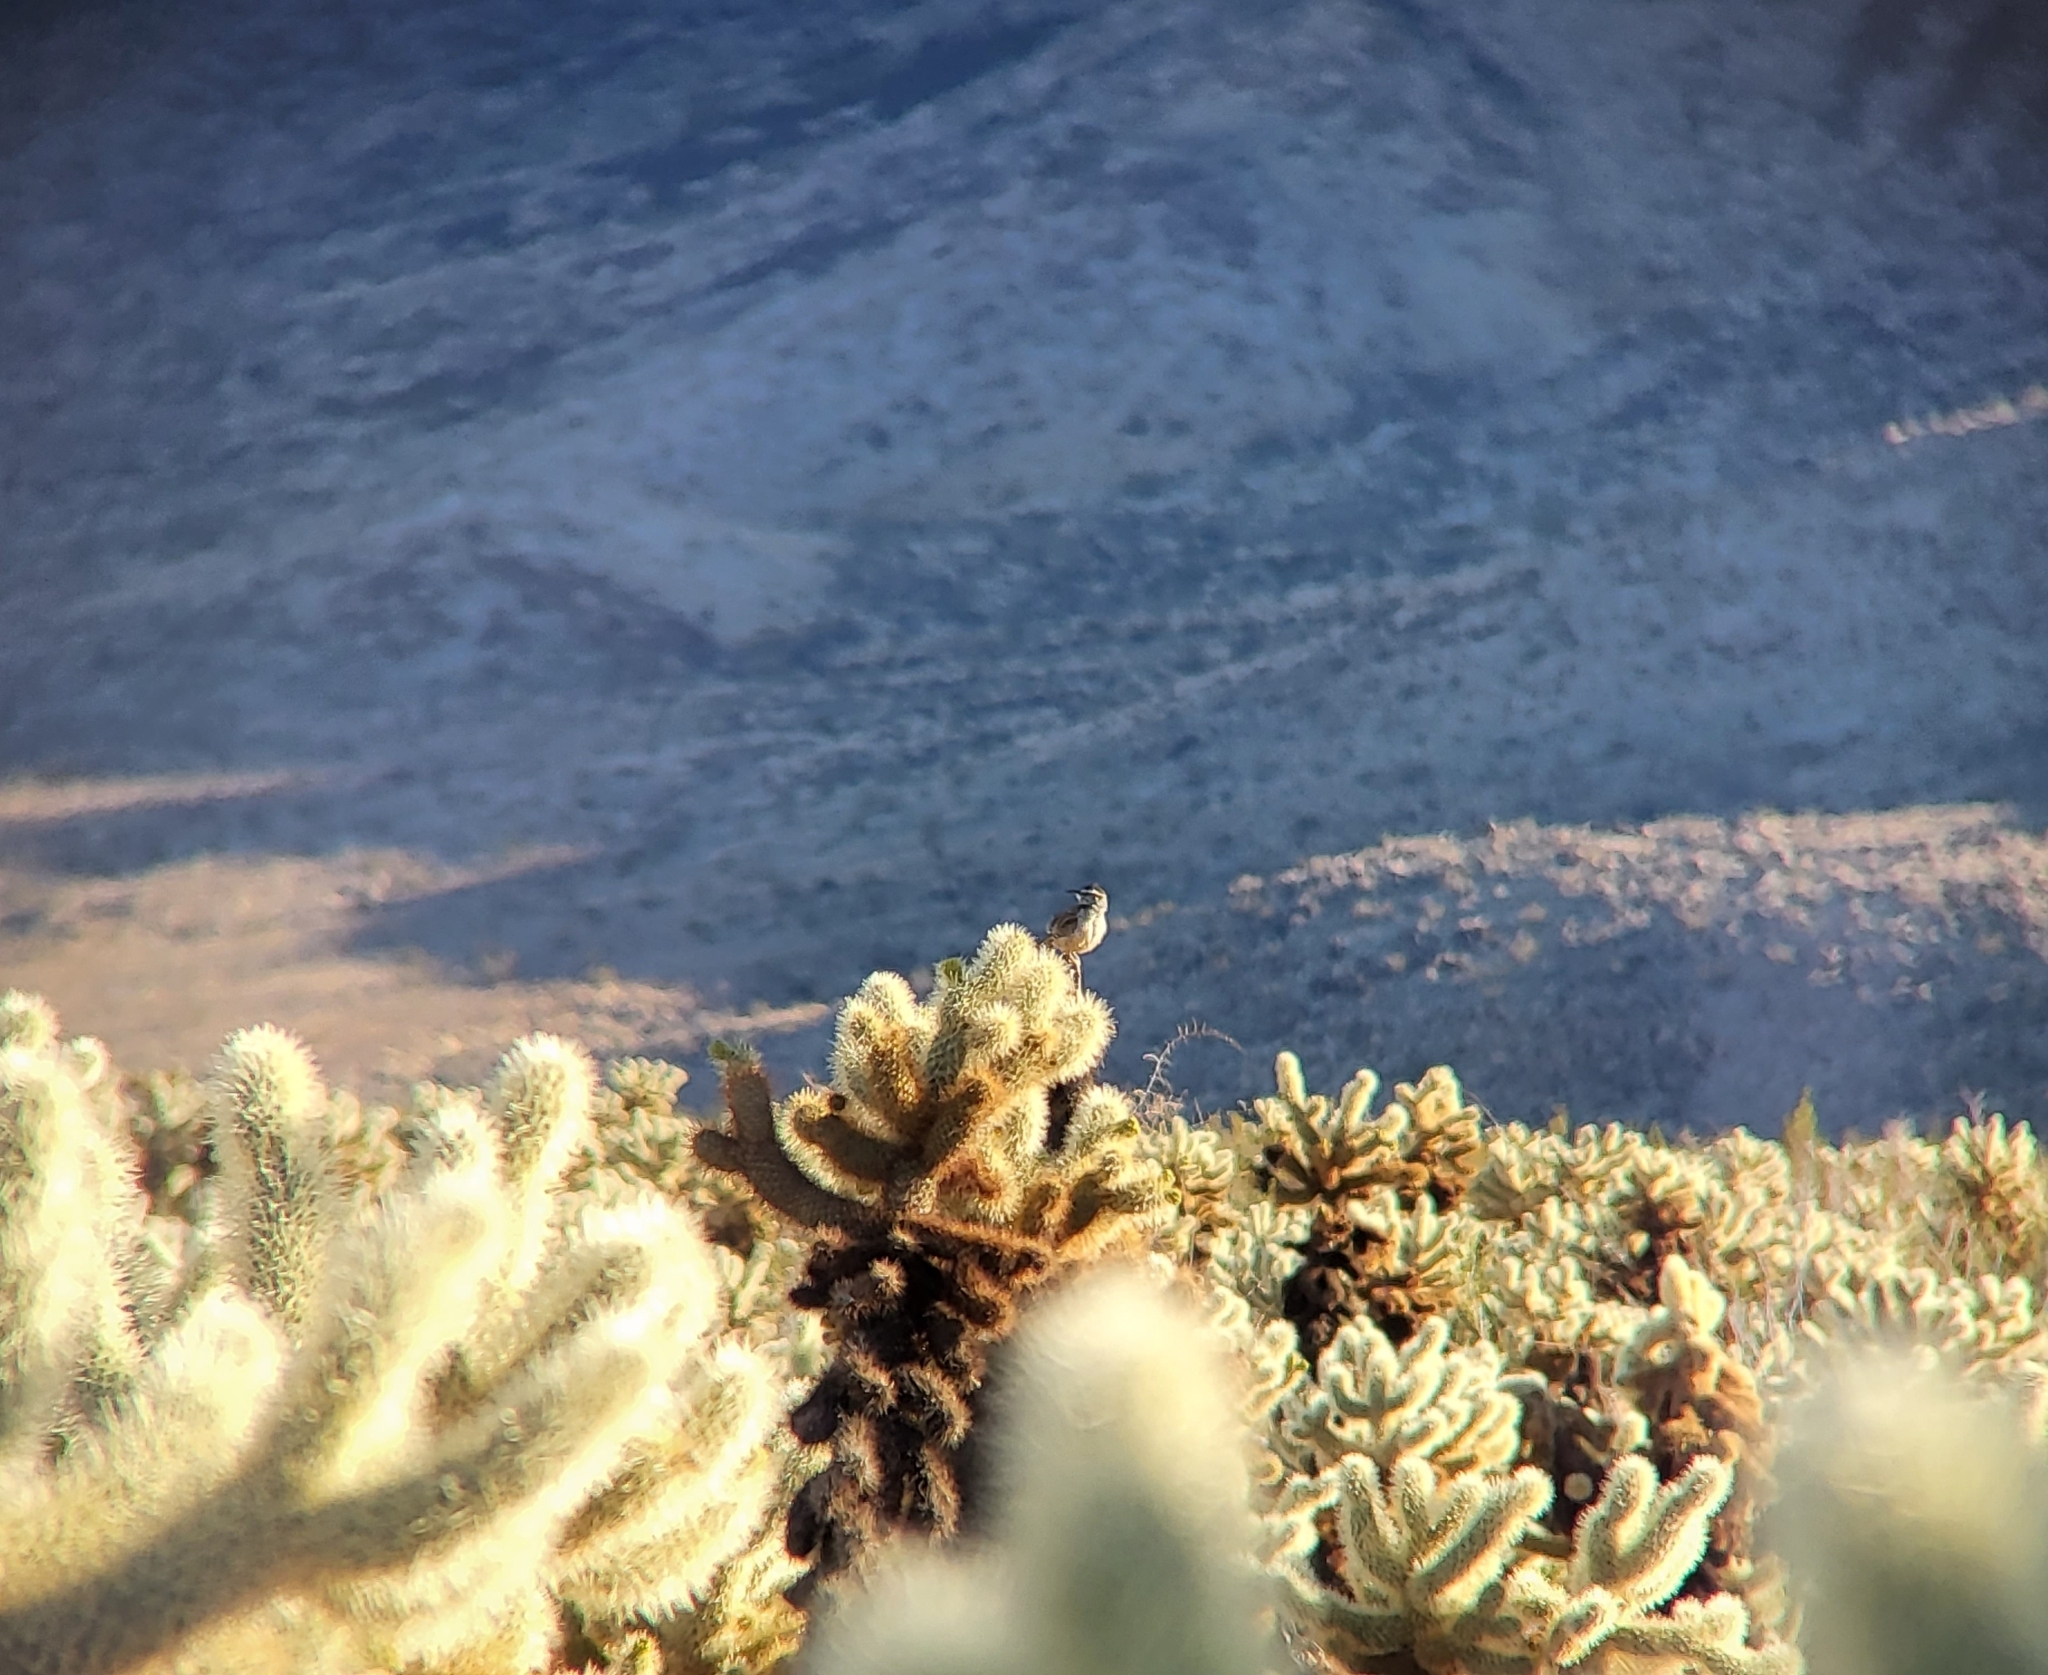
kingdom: Animalia
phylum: Chordata
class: Aves
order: Passeriformes
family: Troglodytidae
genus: Campylorhynchus
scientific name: Campylorhynchus brunneicapillus
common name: Cactus wren
